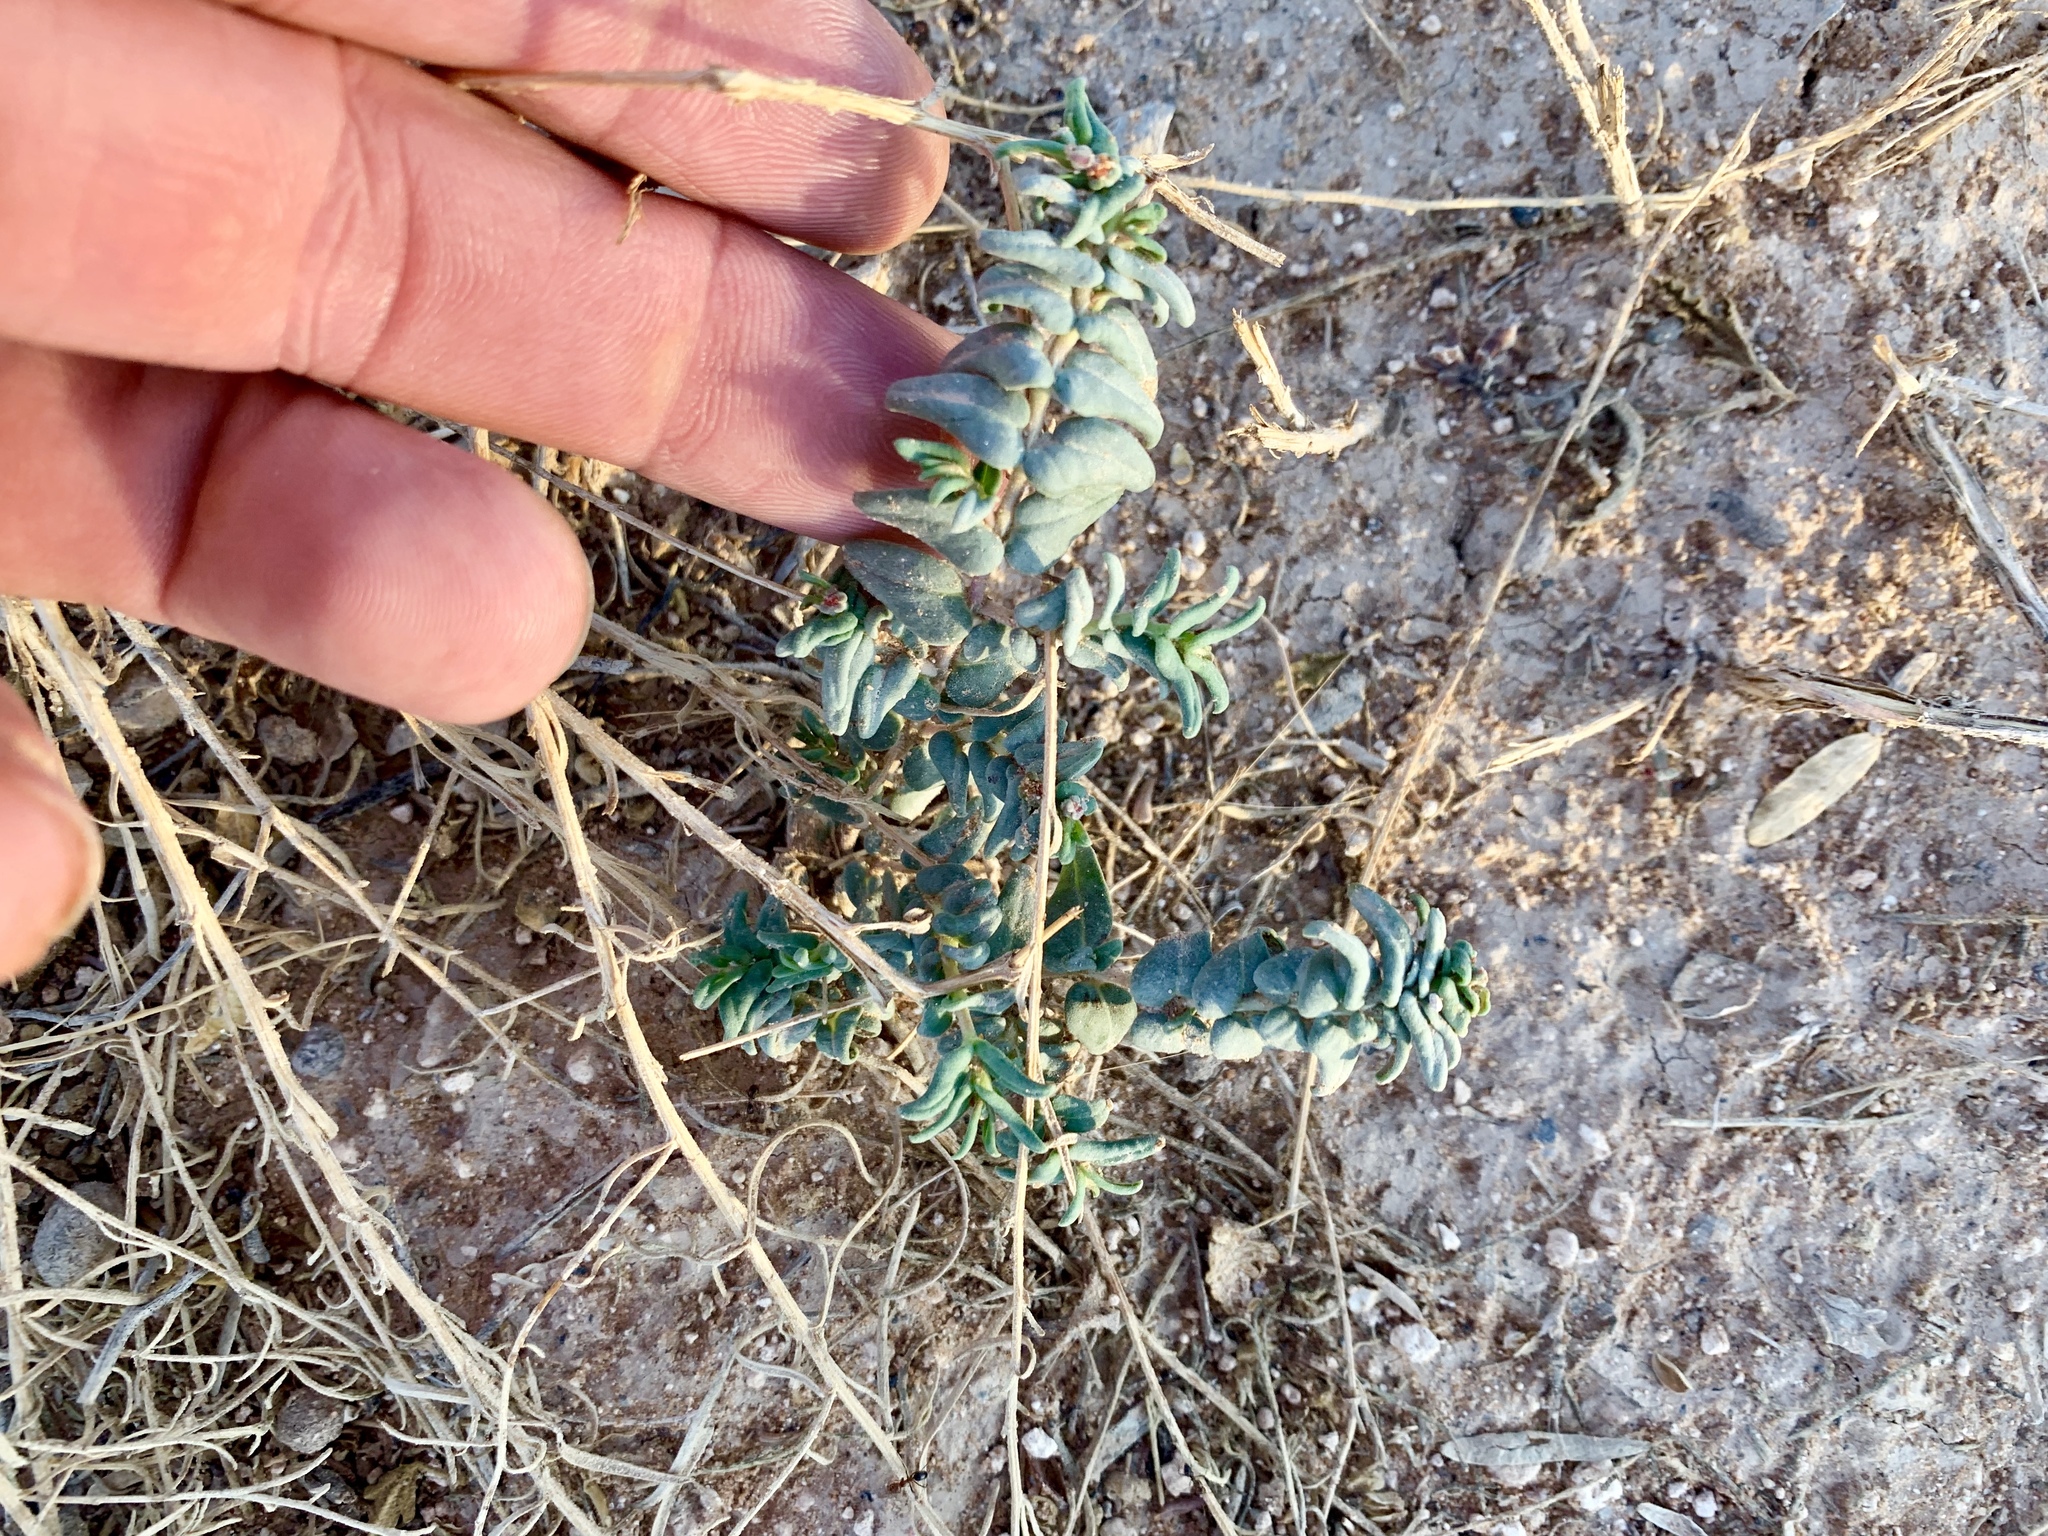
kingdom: Plantae
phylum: Tracheophyta
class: Magnoliopsida
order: Malpighiales
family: Euphorbiaceae
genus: Euphorbia
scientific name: Euphorbia lata
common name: Hoary euphorbia
